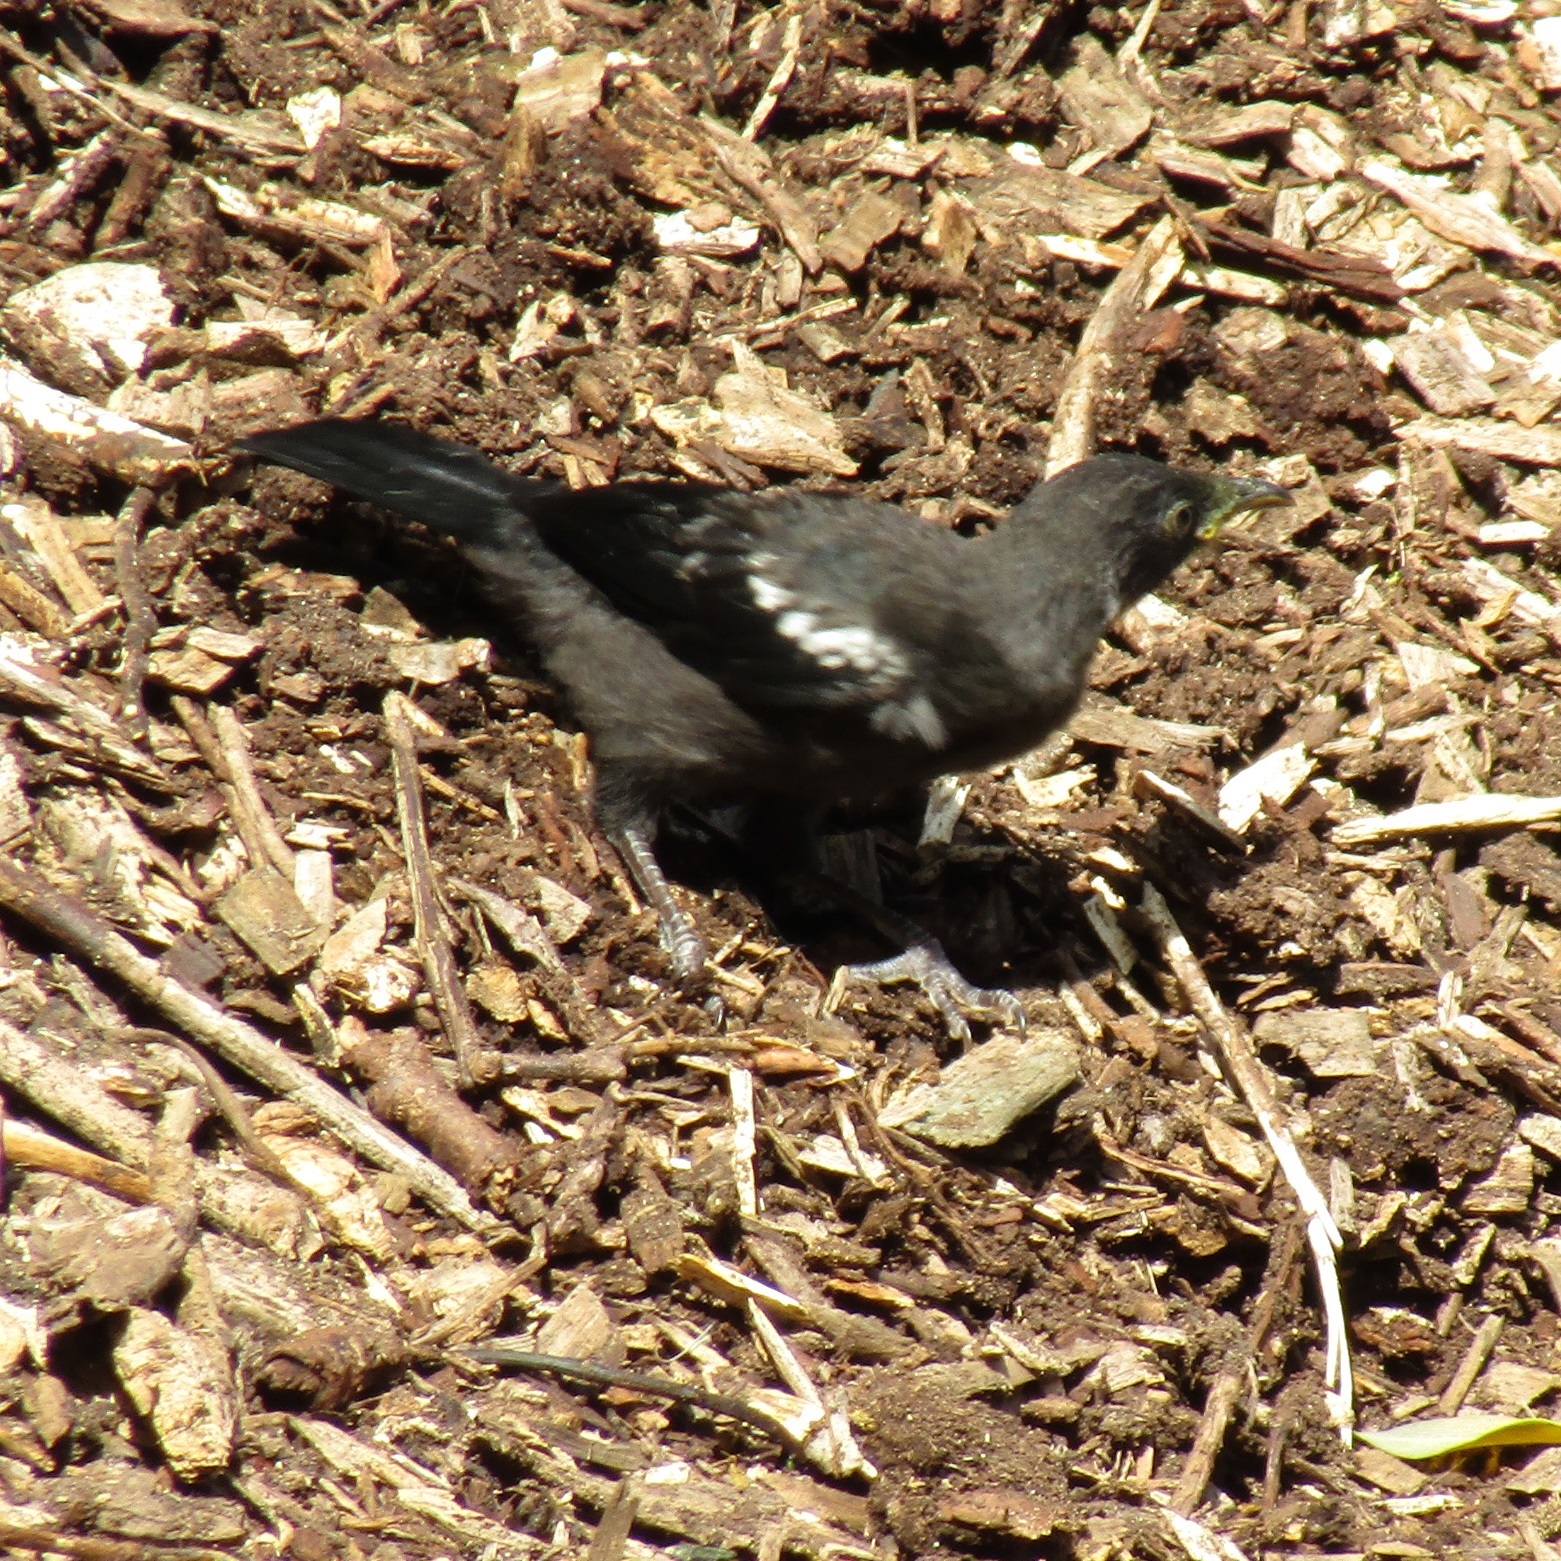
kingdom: Animalia
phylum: Chordata
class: Aves
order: Passeriformes
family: Meliphagidae
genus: Prosthemadera
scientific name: Prosthemadera novaeseelandiae
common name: Tui
